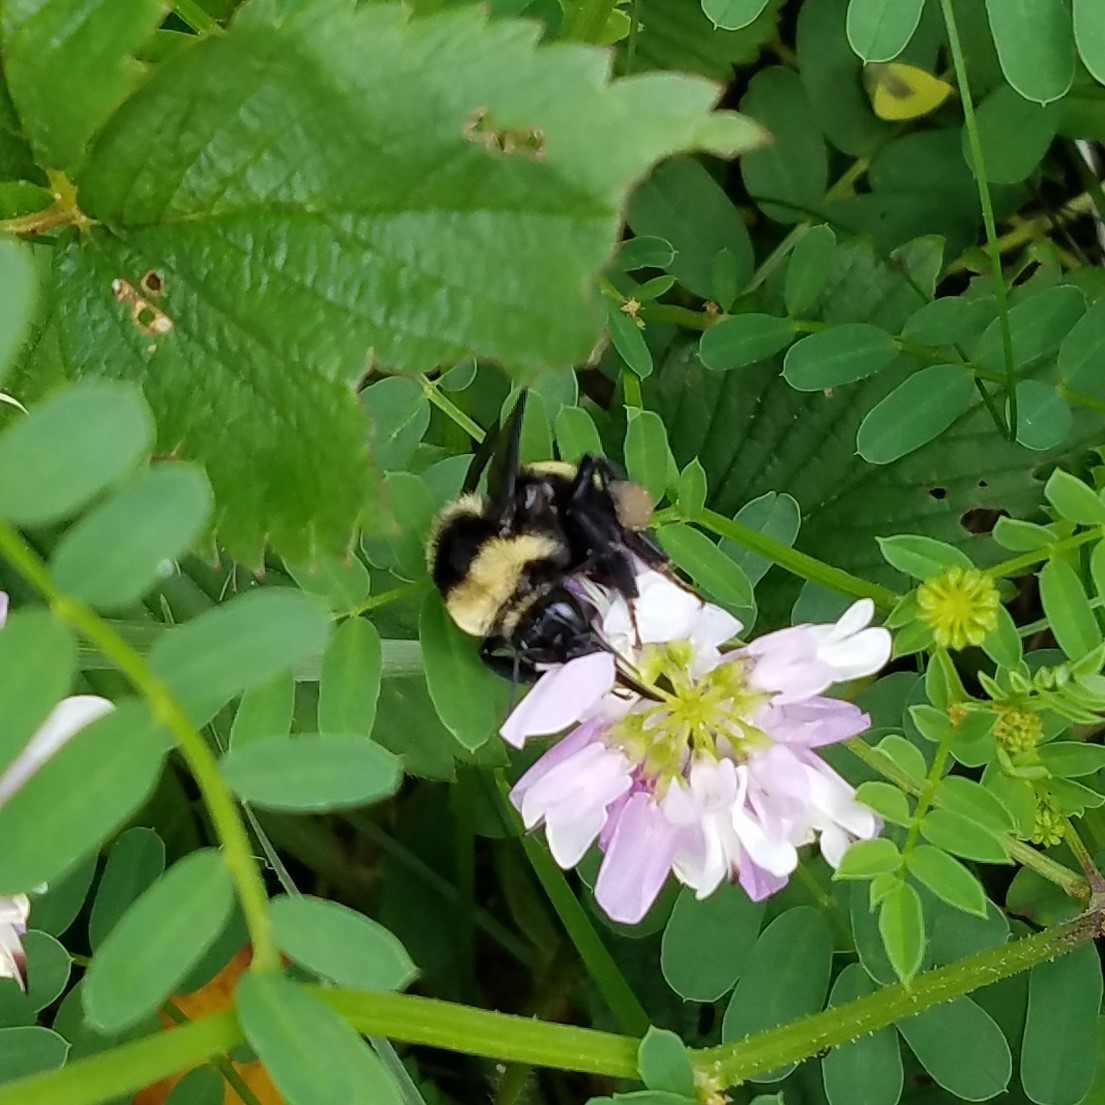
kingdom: Animalia
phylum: Arthropoda
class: Insecta
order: Hymenoptera
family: Apidae
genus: Bombus
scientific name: Bombus auricomus
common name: Black and gold bumble bee
